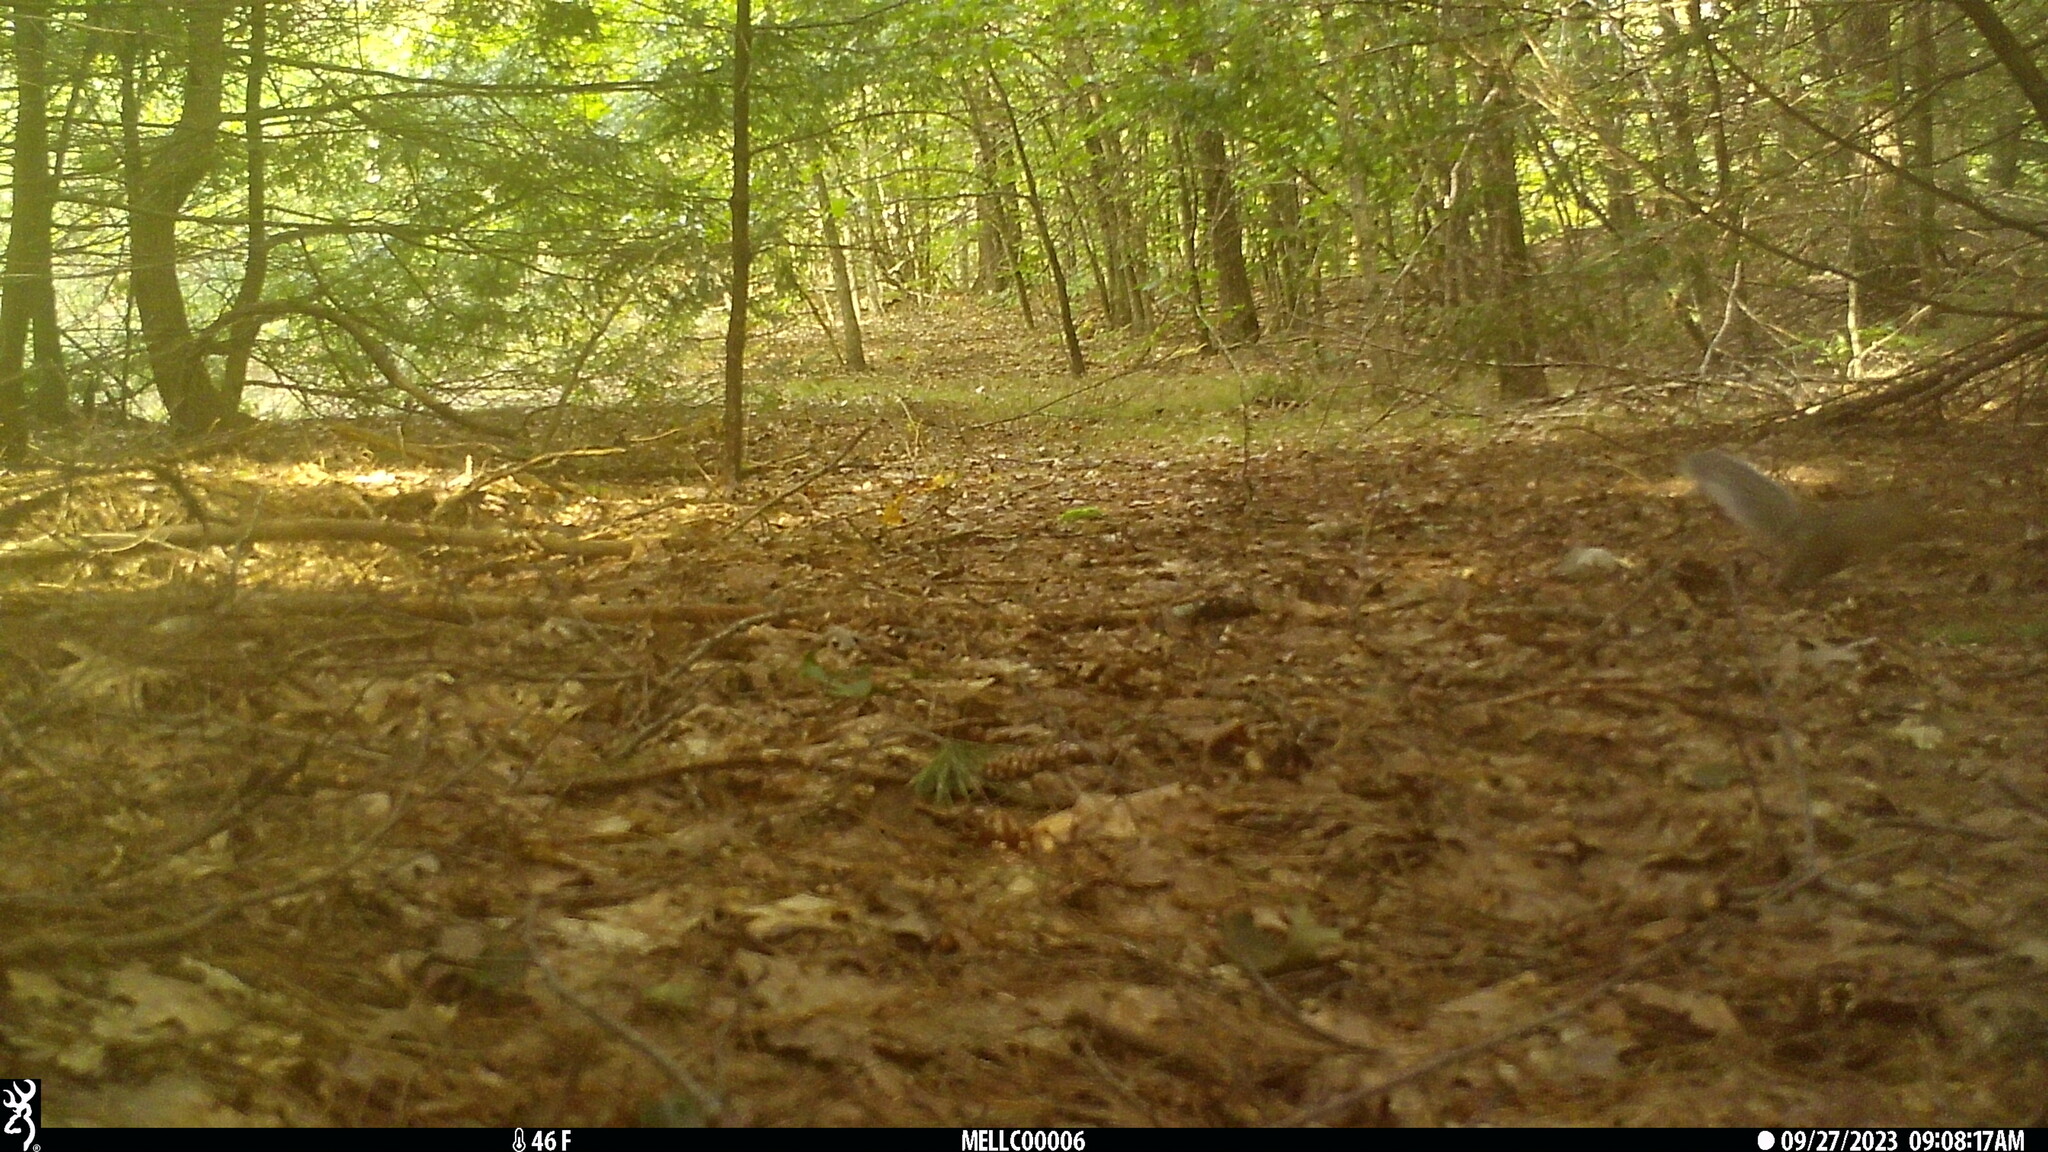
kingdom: Animalia
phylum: Chordata
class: Mammalia
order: Rodentia
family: Sciuridae
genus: Sciurus
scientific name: Sciurus carolinensis
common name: Eastern gray squirrel
